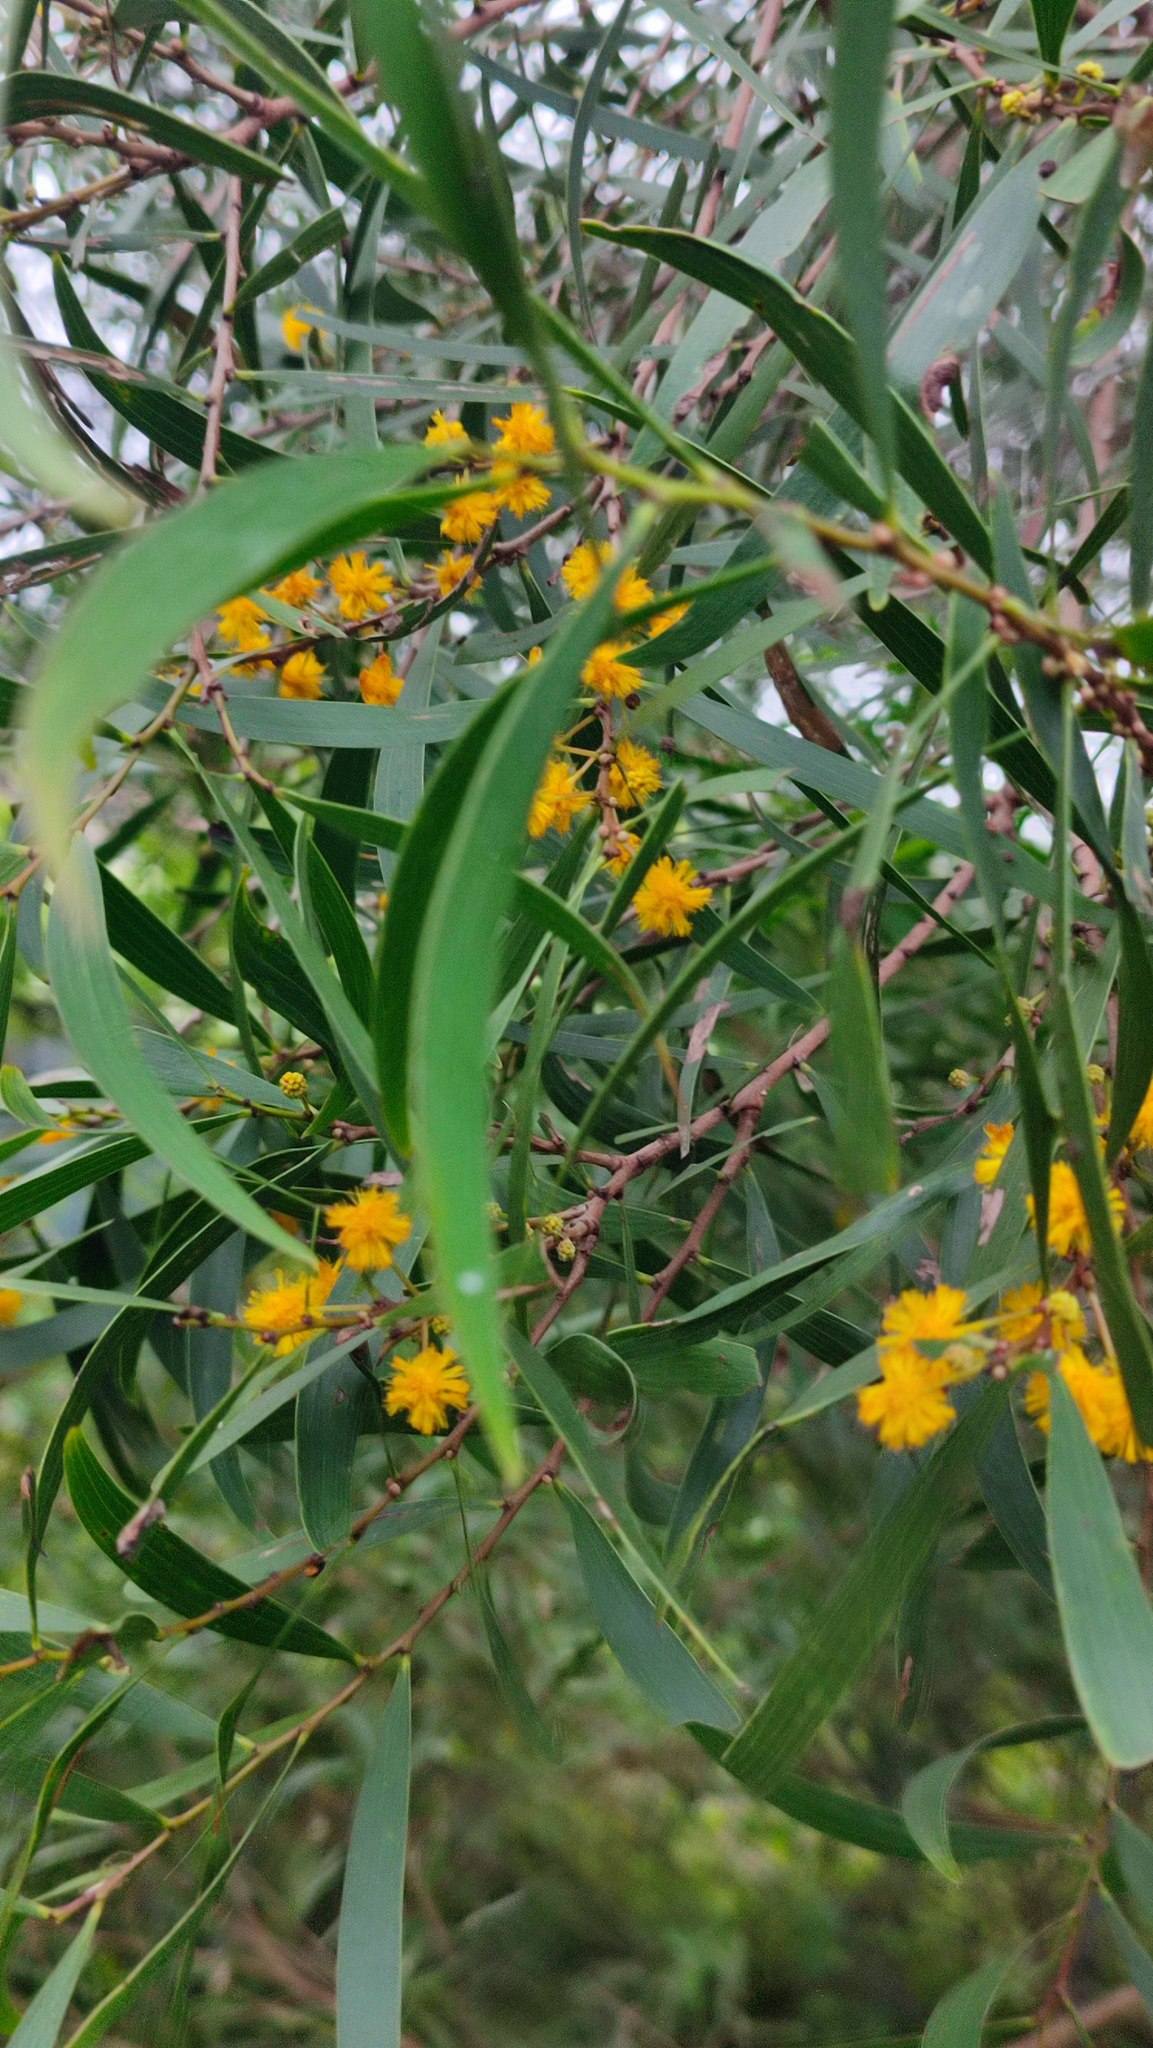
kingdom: Plantae
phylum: Tracheophyta
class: Magnoliopsida
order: Fabales
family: Fabaceae
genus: Acacia
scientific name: Acacia confusa
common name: Formosan koa
